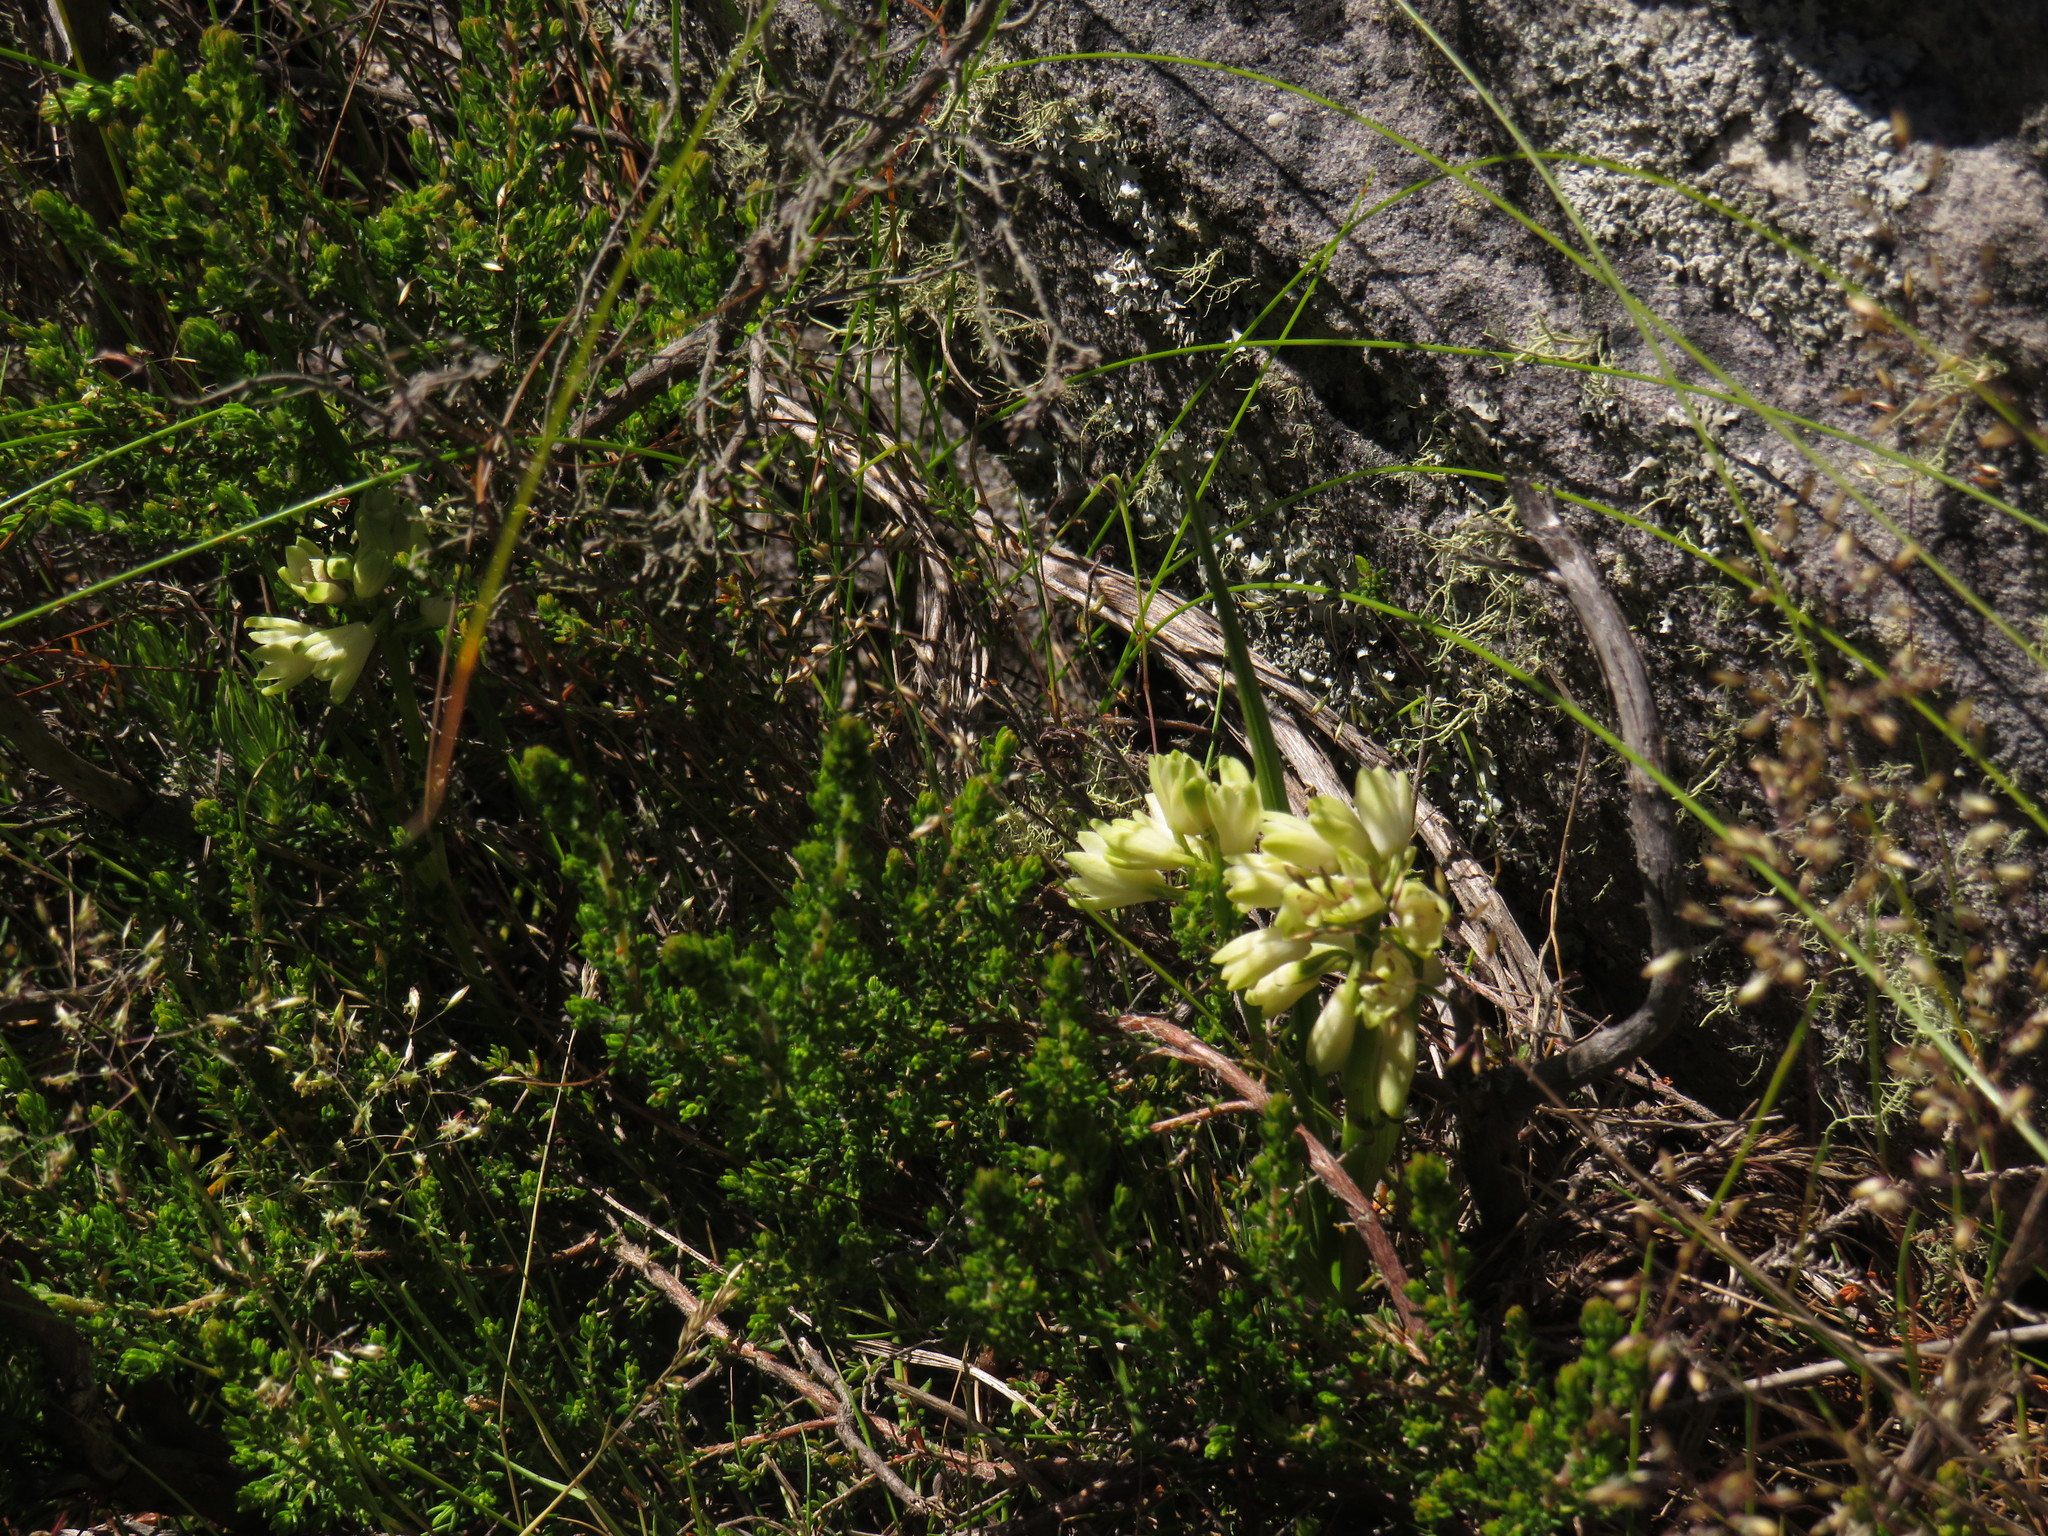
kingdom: Plantae
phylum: Tracheophyta
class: Liliopsida
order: Asparagales
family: Orchidaceae
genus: Eulophia
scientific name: Eulophia aculeata
